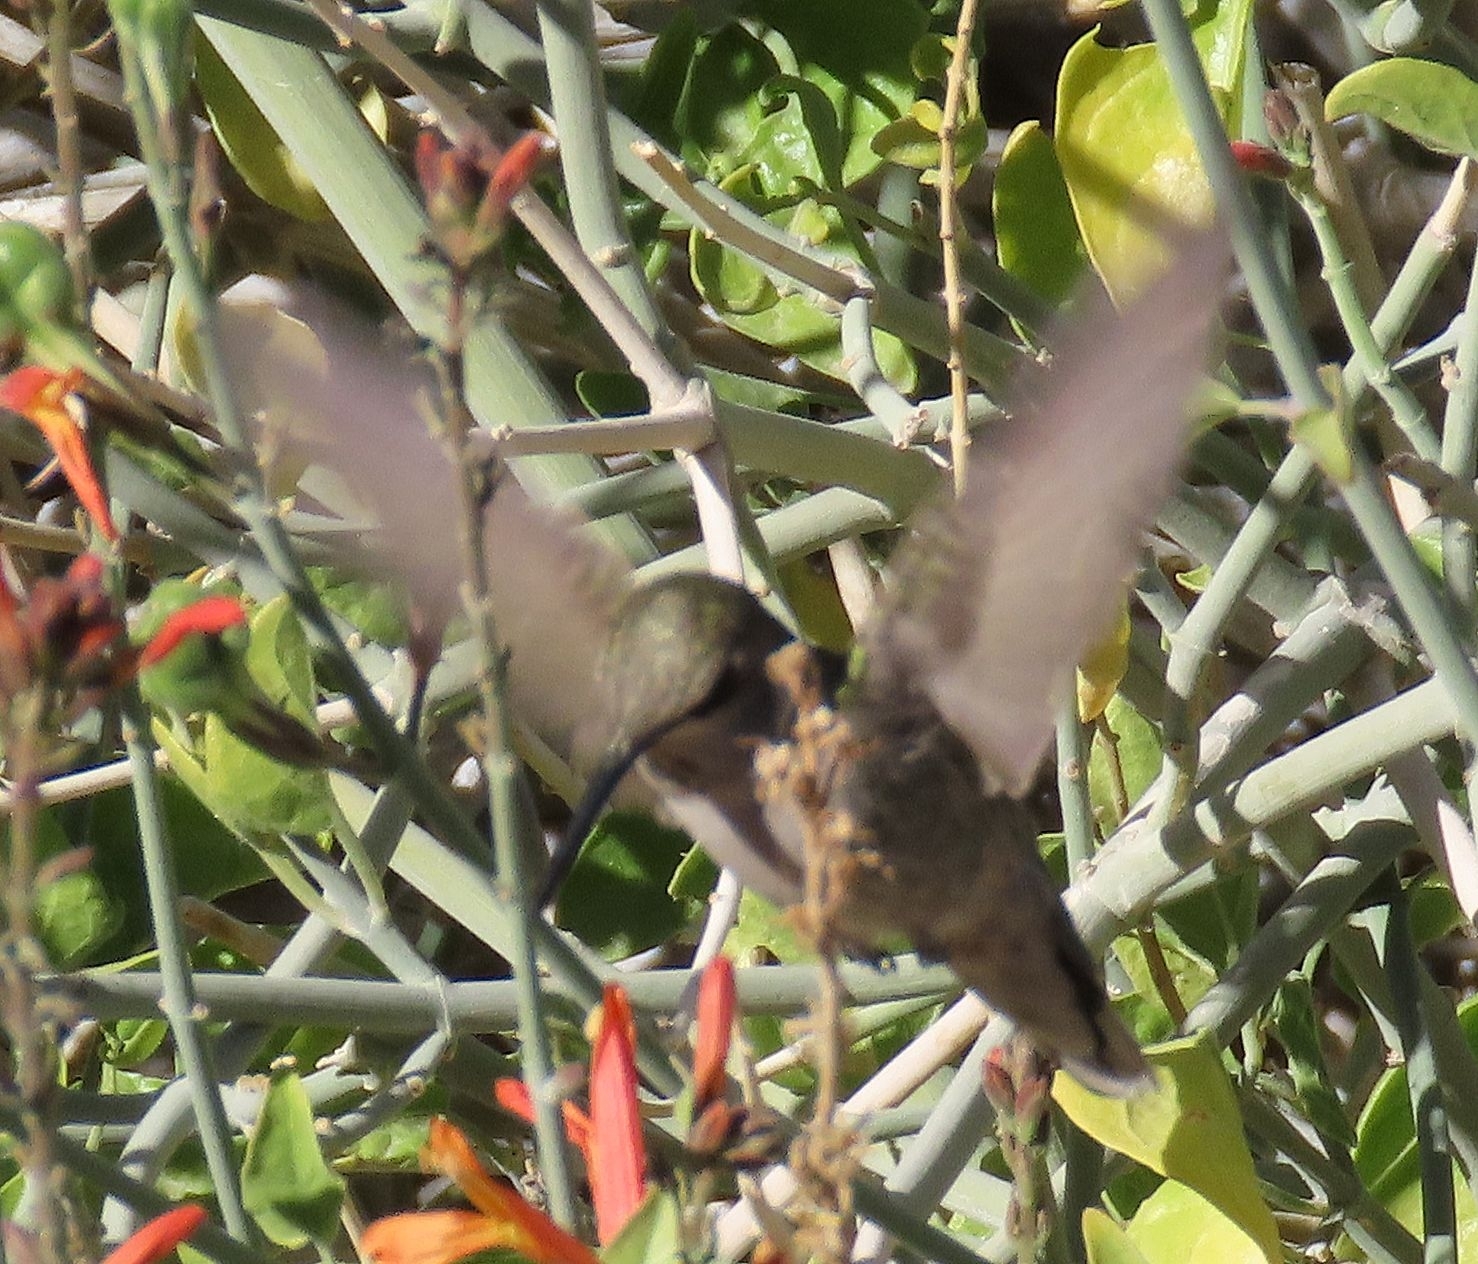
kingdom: Animalia
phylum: Chordata
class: Aves
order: Apodiformes
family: Trochilidae
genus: Calypte
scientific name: Calypte costae
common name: Costa's hummingbird
